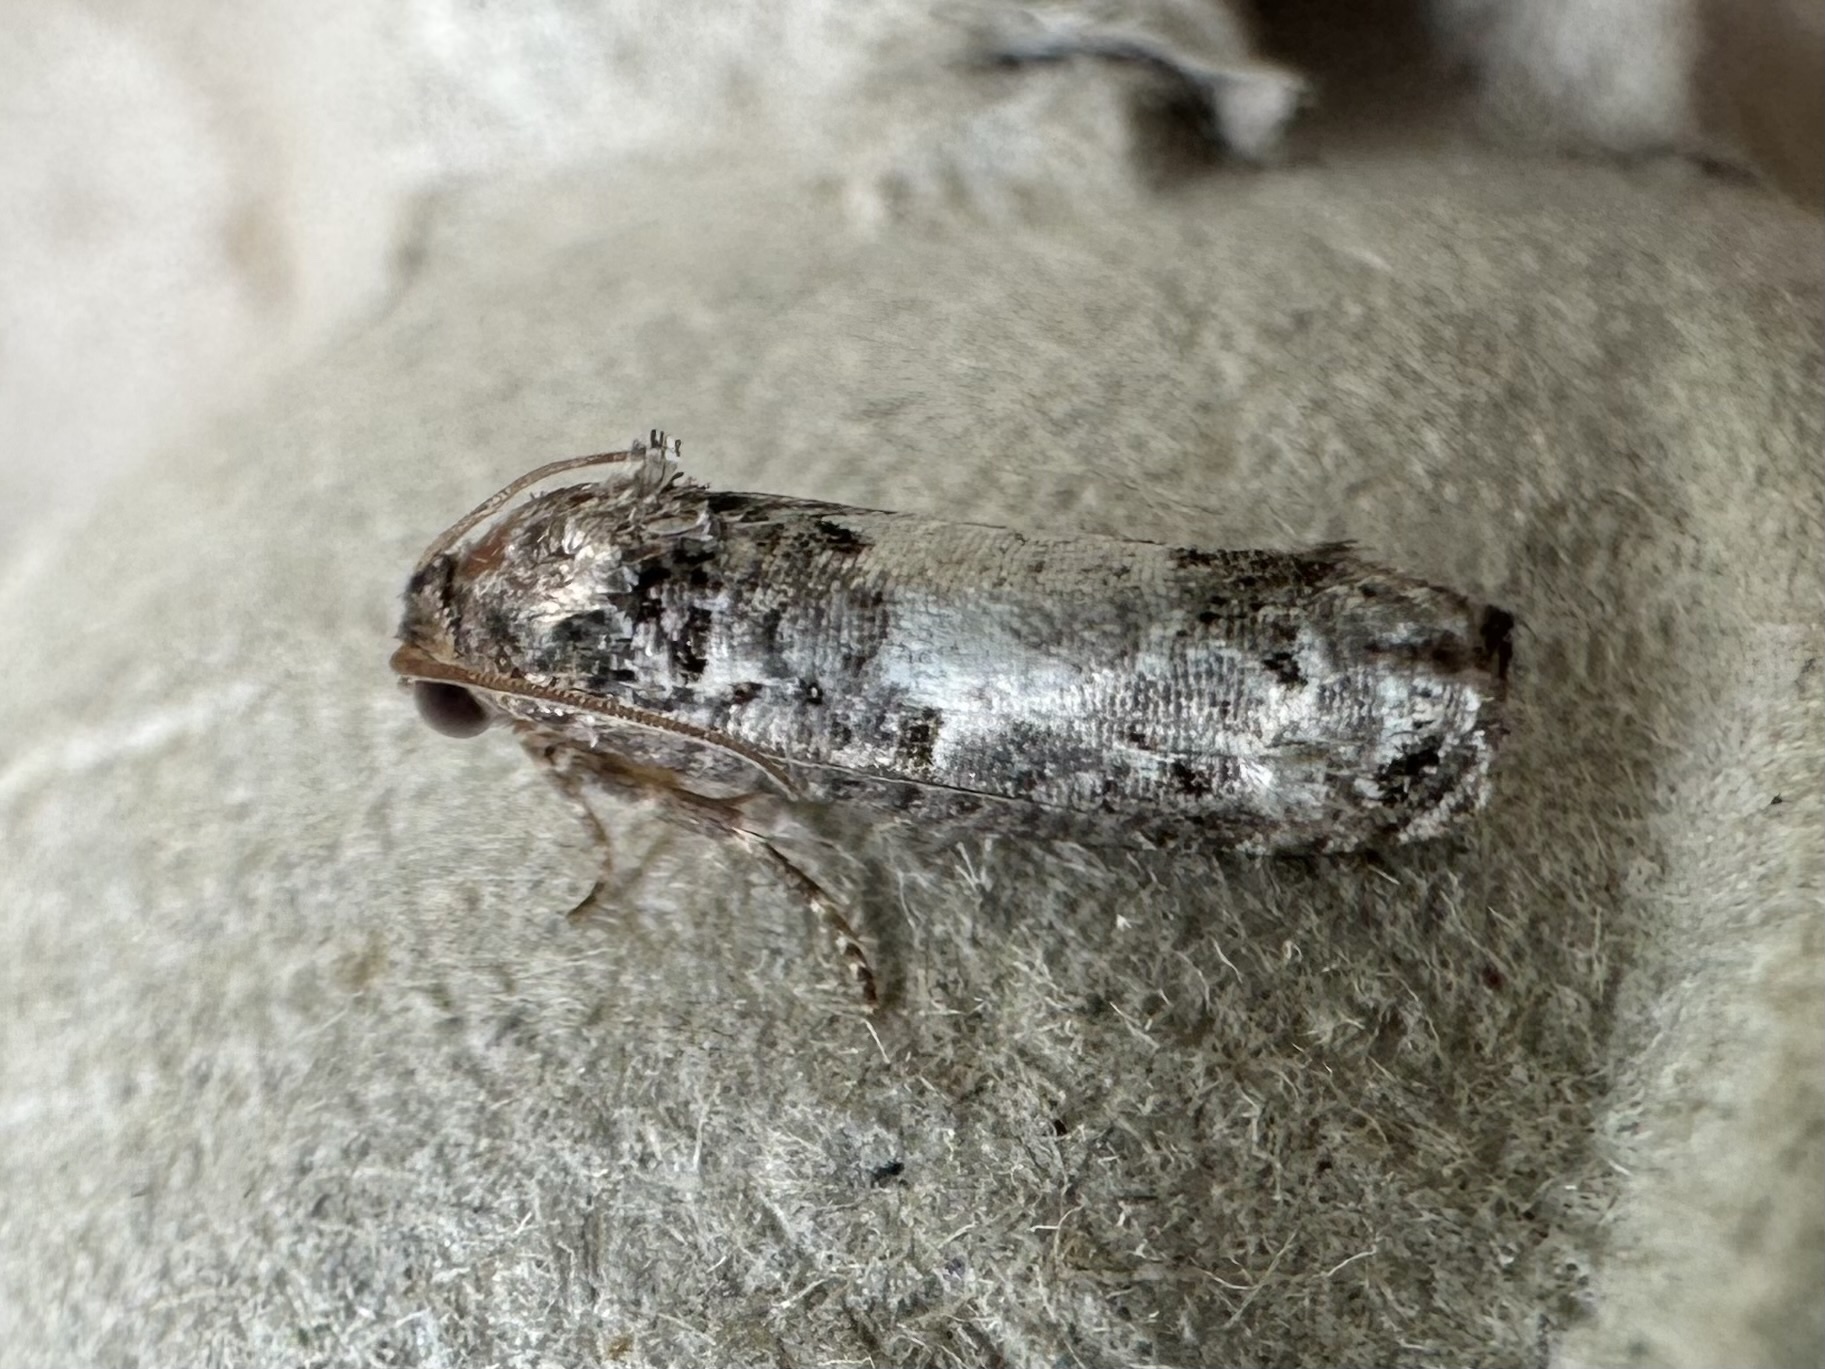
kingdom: Animalia
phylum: Arthropoda
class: Insecta
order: Lepidoptera
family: Tortricidae
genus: Epiblema
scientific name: Epiblema carolinana
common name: Gray-blotched epiblema moth
